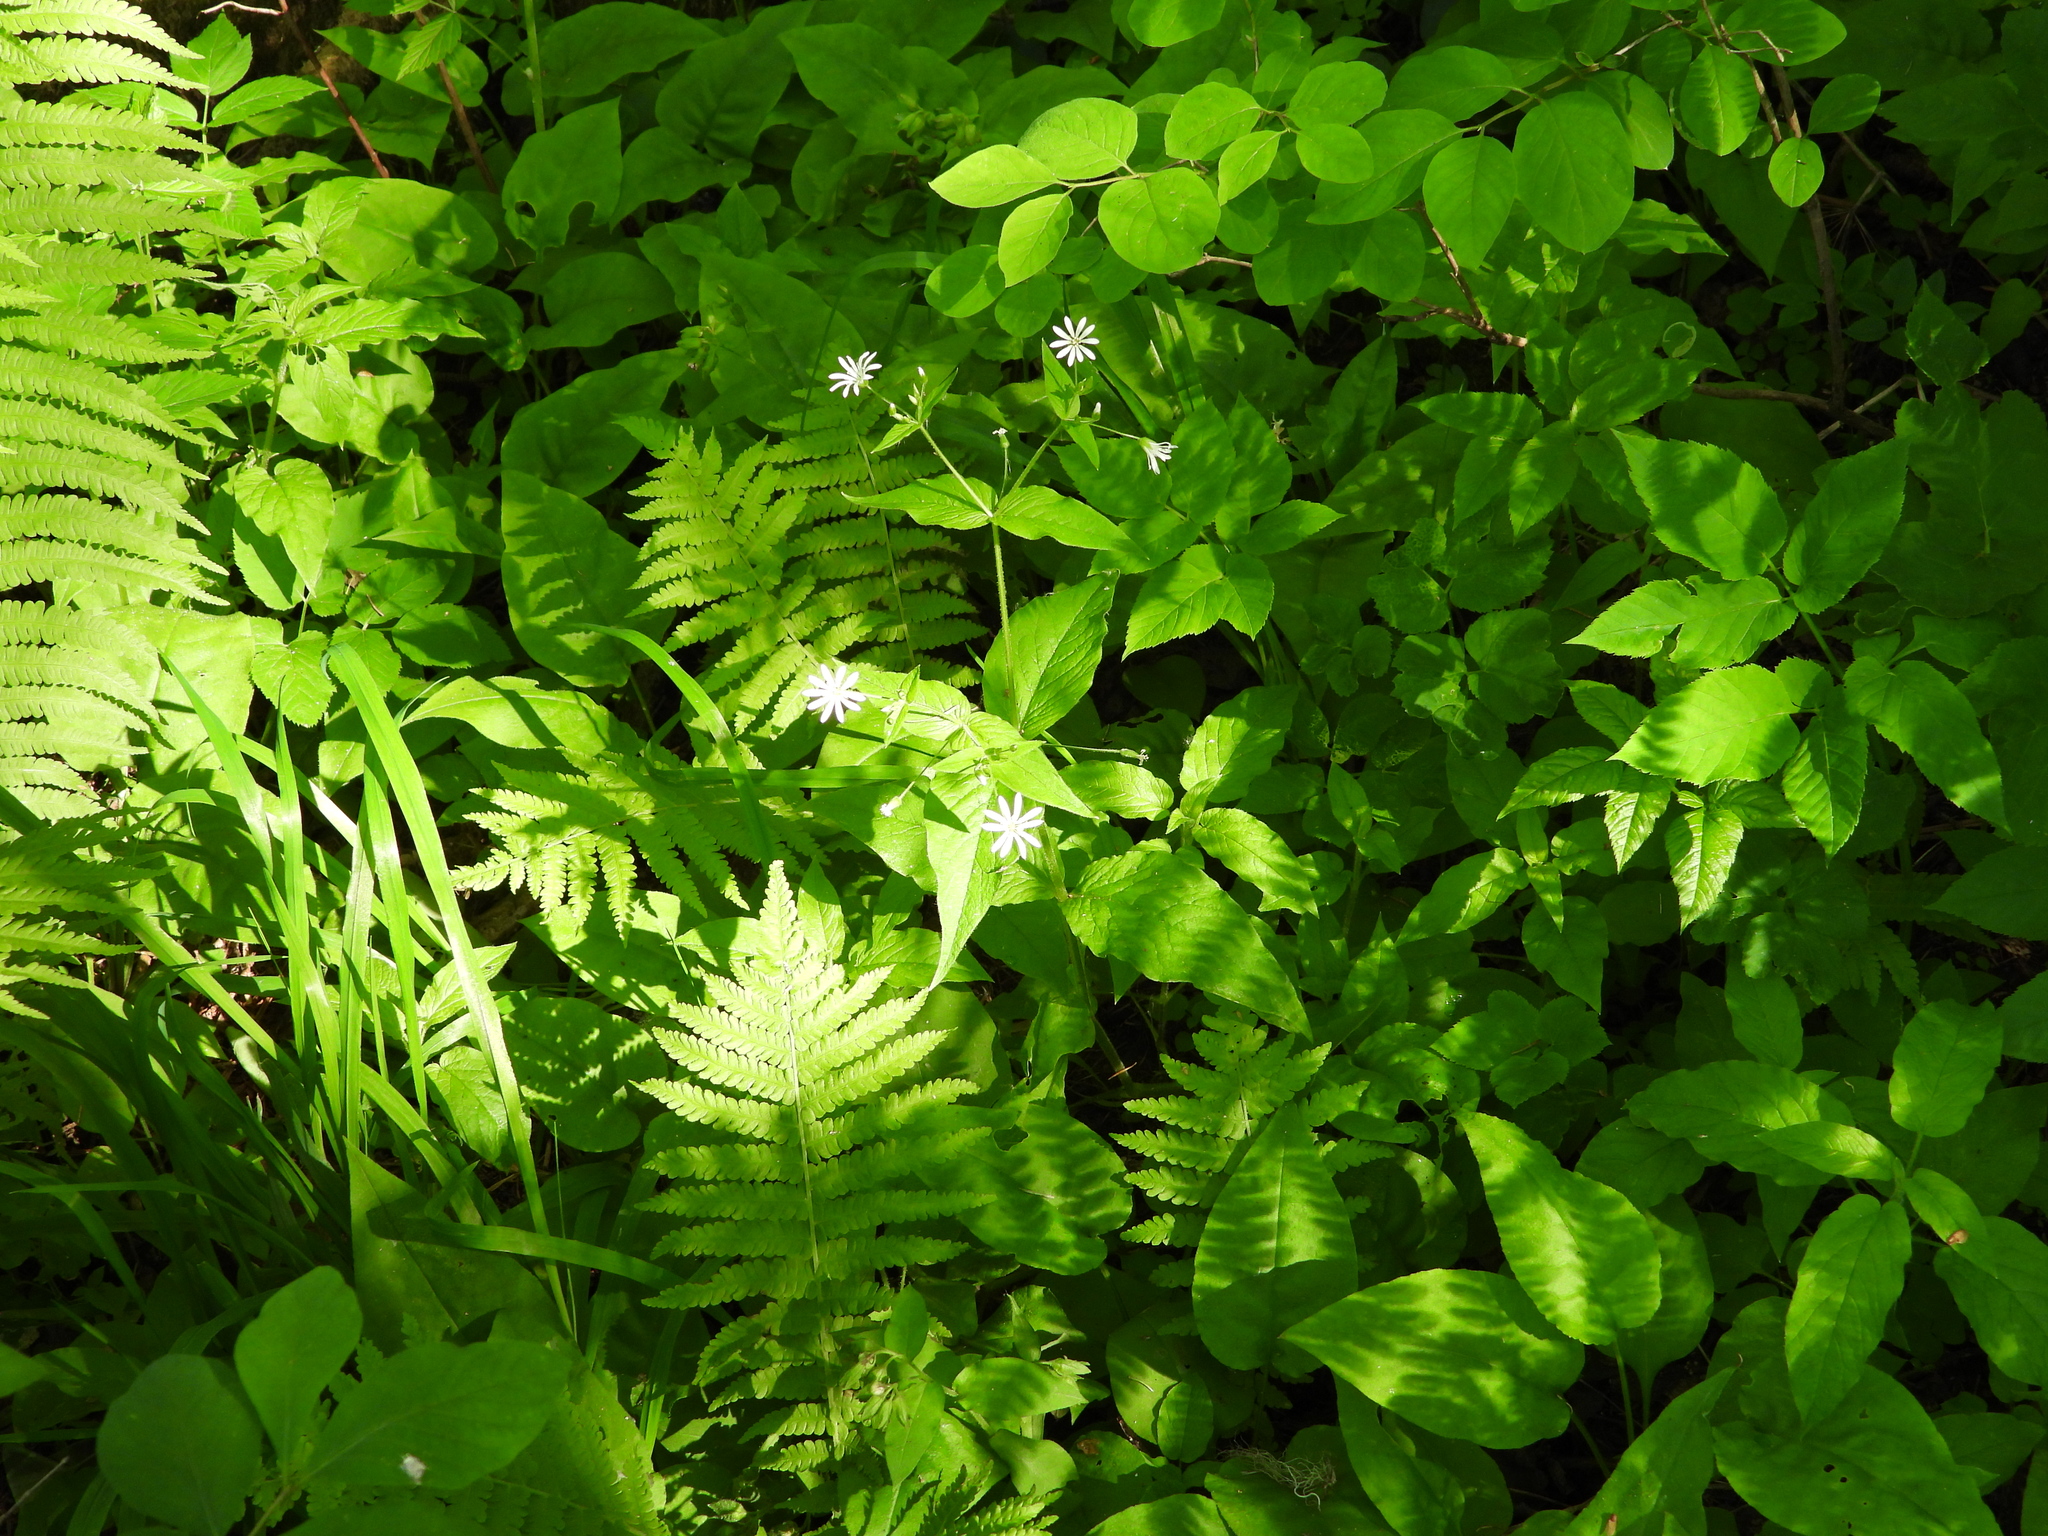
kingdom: Plantae
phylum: Tracheophyta
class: Magnoliopsida
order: Caryophyllales
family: Caryophyllaceae
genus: Stellaria
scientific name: Stellaria nemorum
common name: Wood stitchwort
